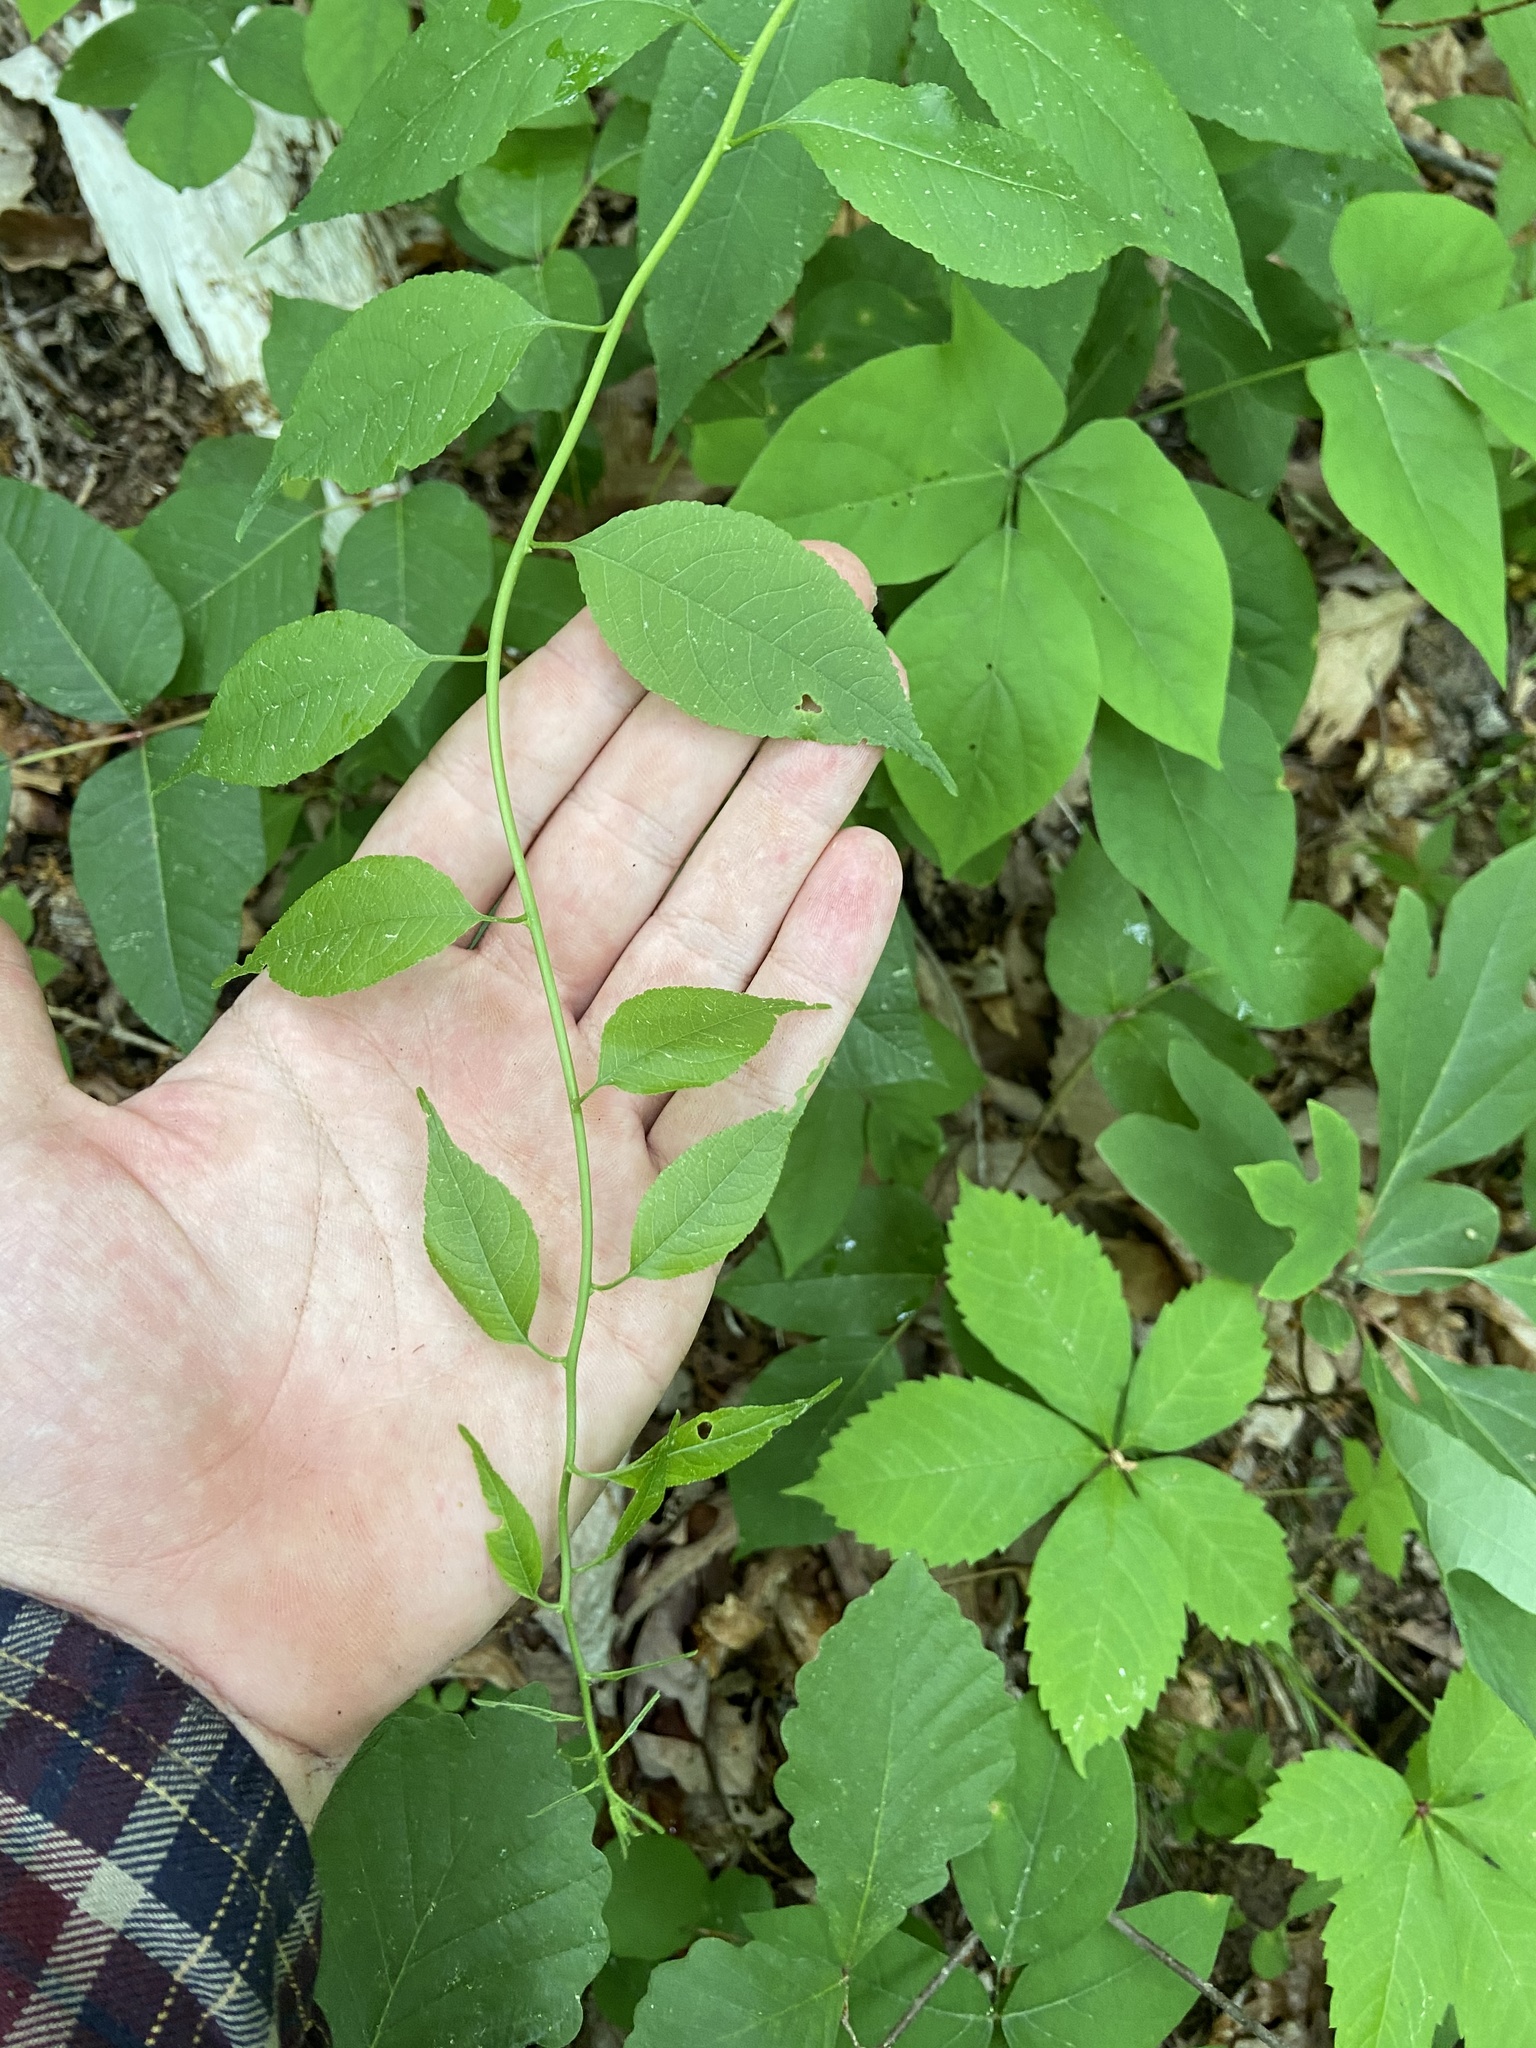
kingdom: Plantae
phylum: Tracheophyta
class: Magnoliopsida
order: Celastrales
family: Celastraceae
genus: Celastrus
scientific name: Celastrus orbiculatus
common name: Oriental bittersweet
